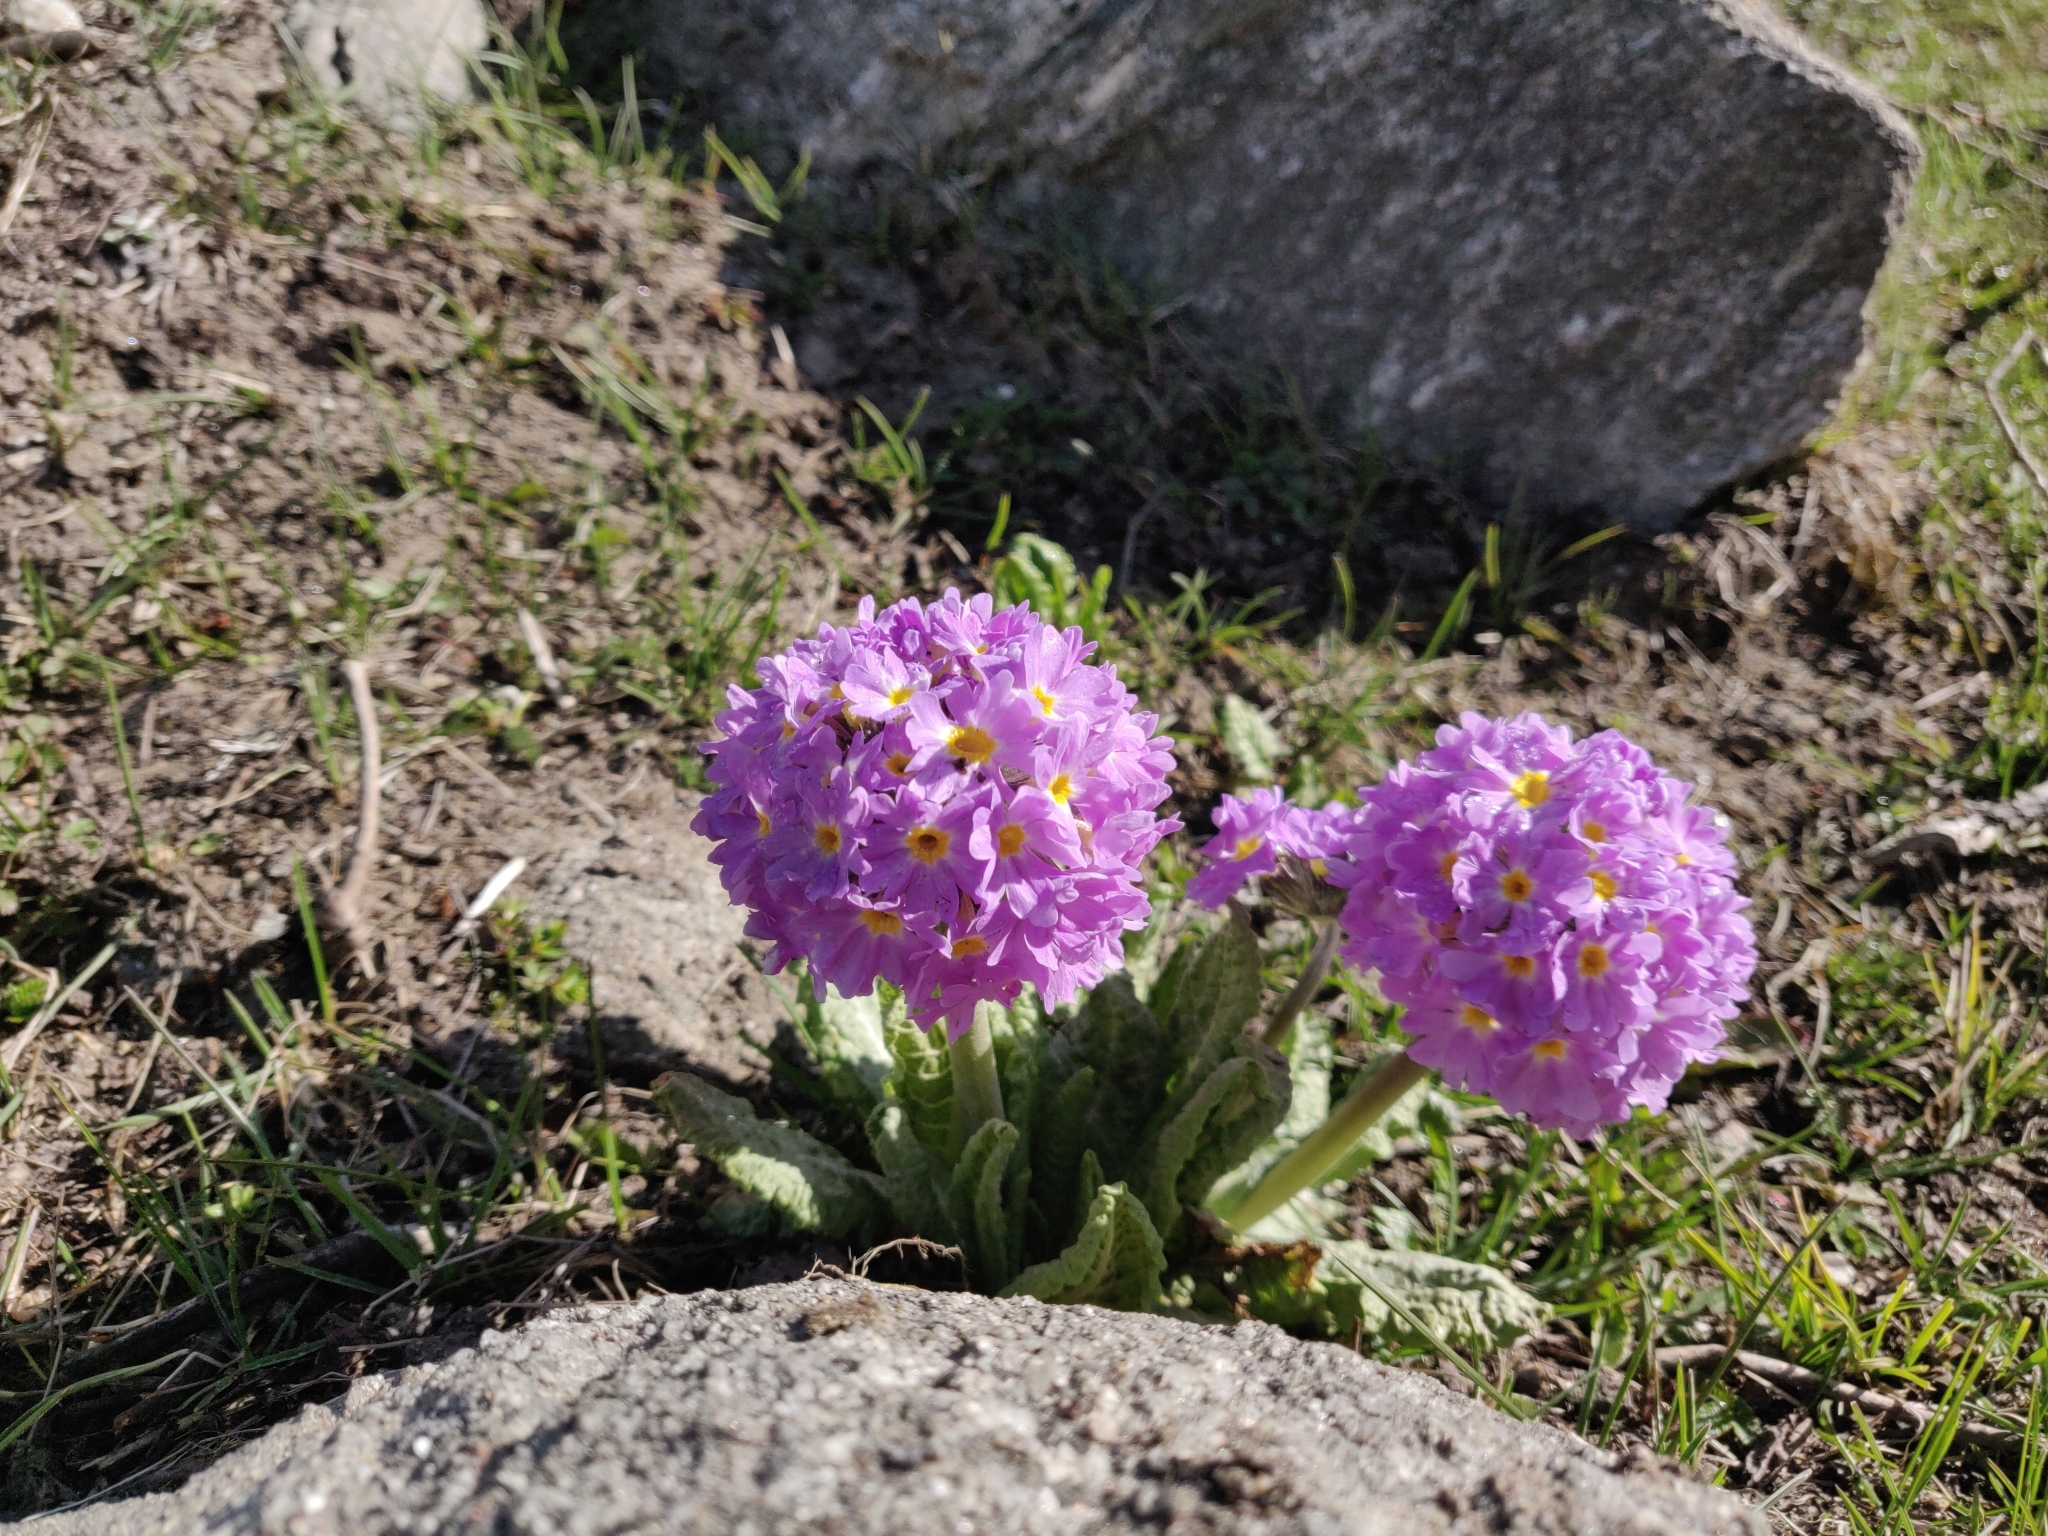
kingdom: Plantae
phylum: Tracheophyta
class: Magnoliopsida
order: Ericales
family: Primulaceae
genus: Primula
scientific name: Primula denticulata
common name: Drumstick primula
